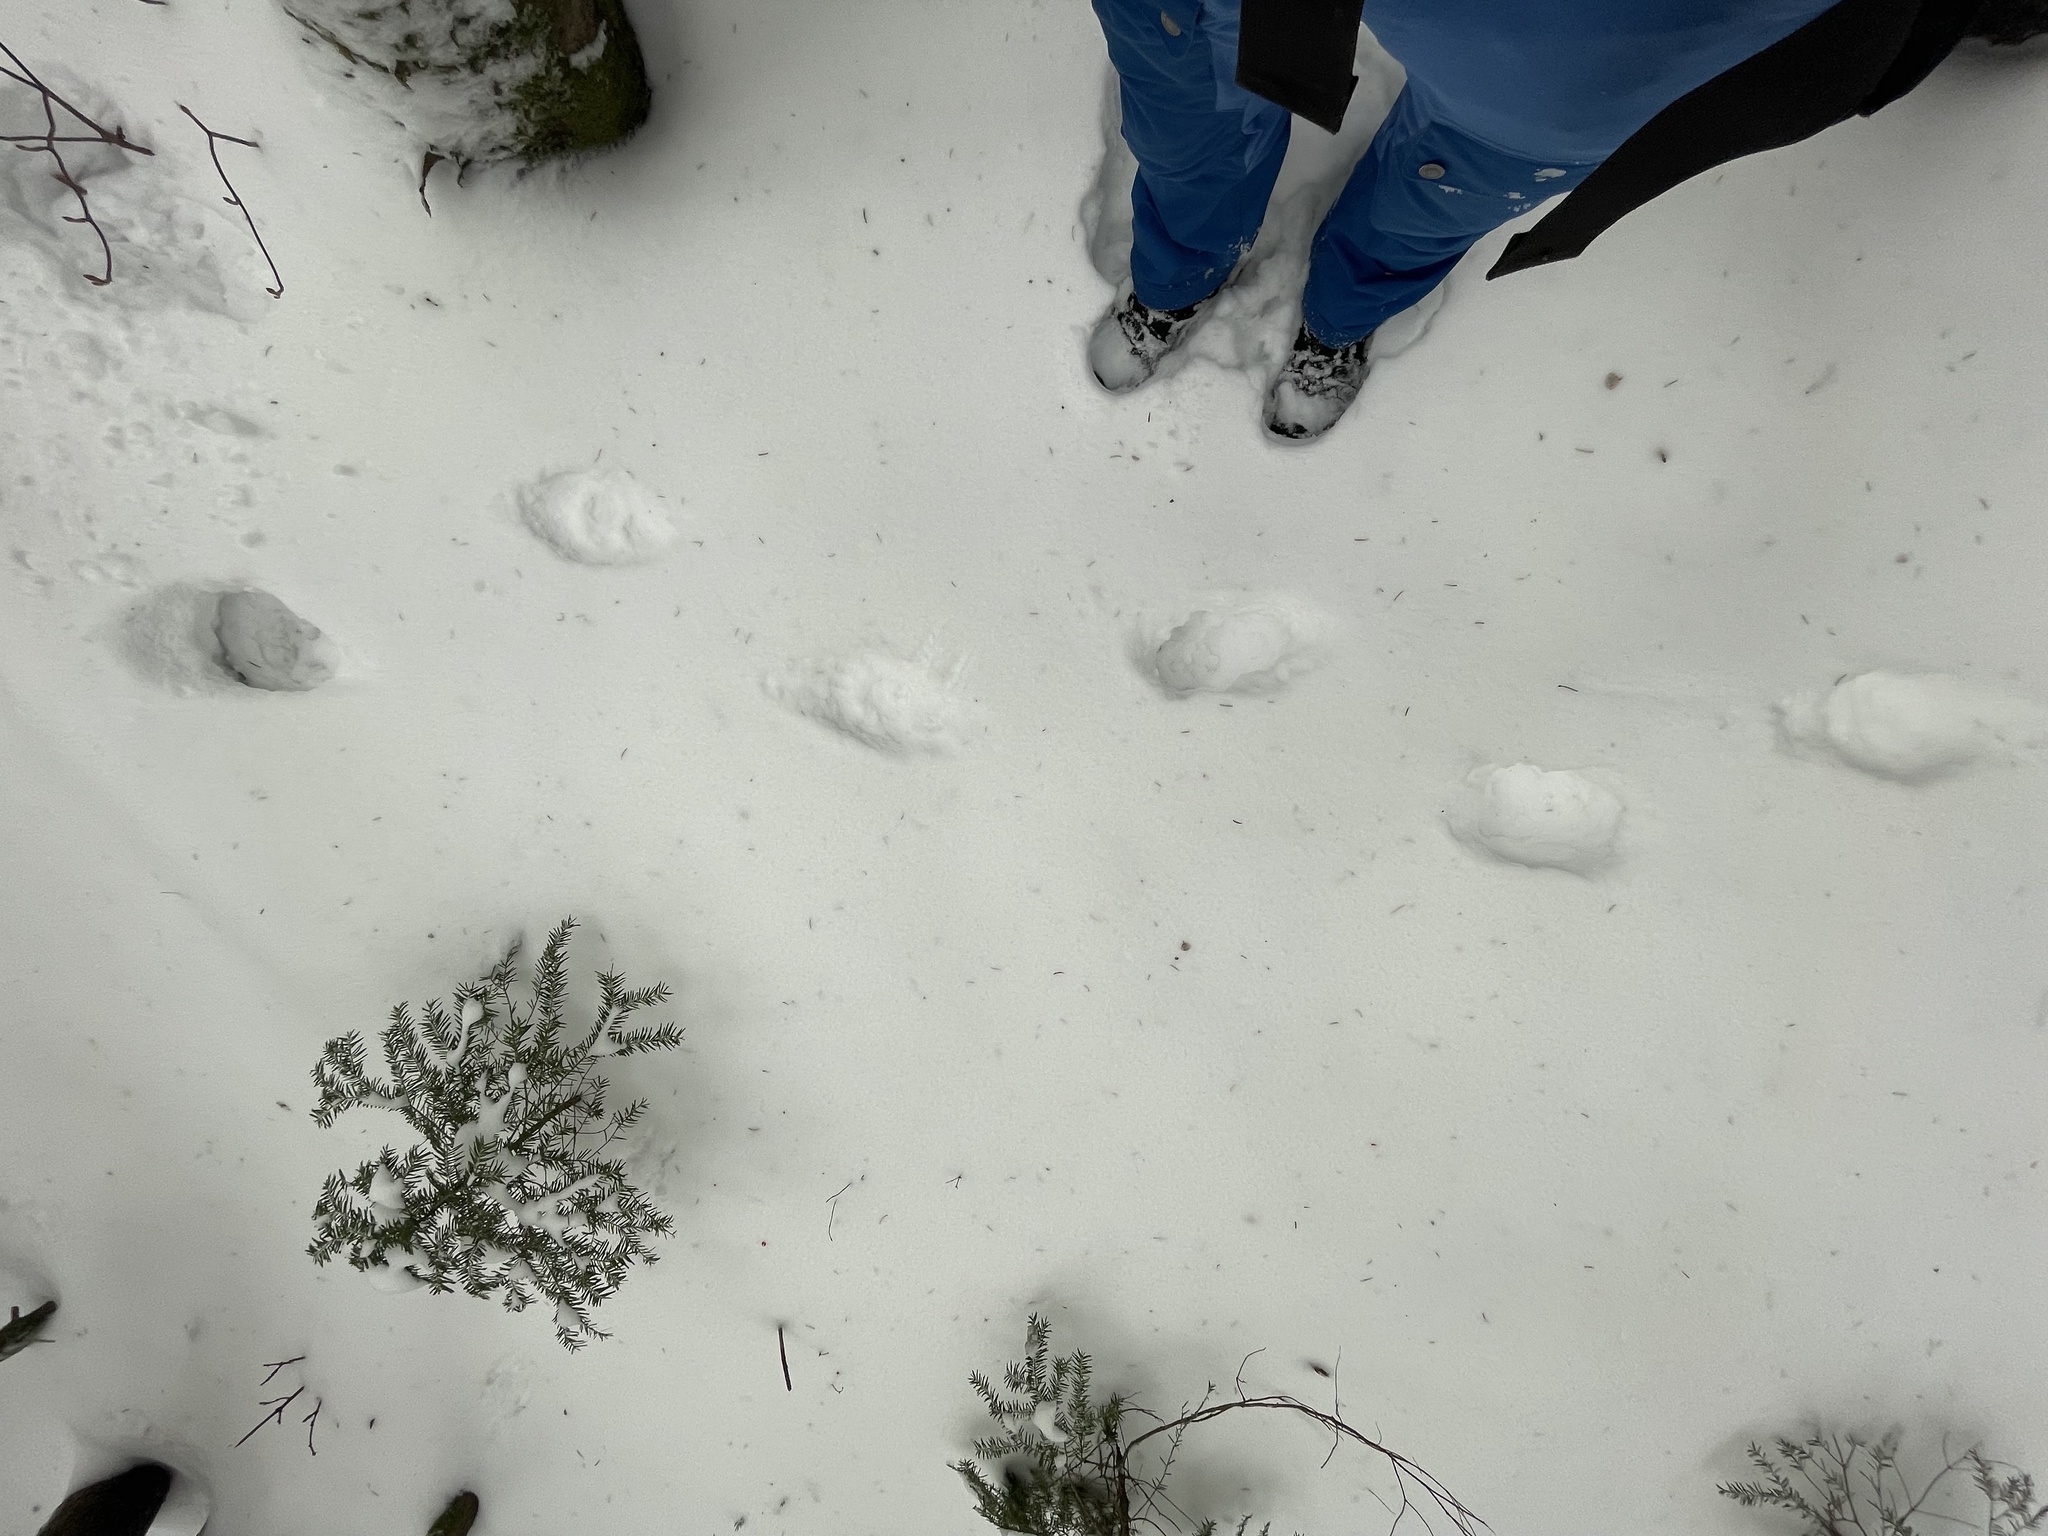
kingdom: Animalia
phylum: Chordata
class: Mammalia
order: Carnivora
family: Ursidae
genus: Ursus
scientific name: Ursus americanus
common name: American black bear
